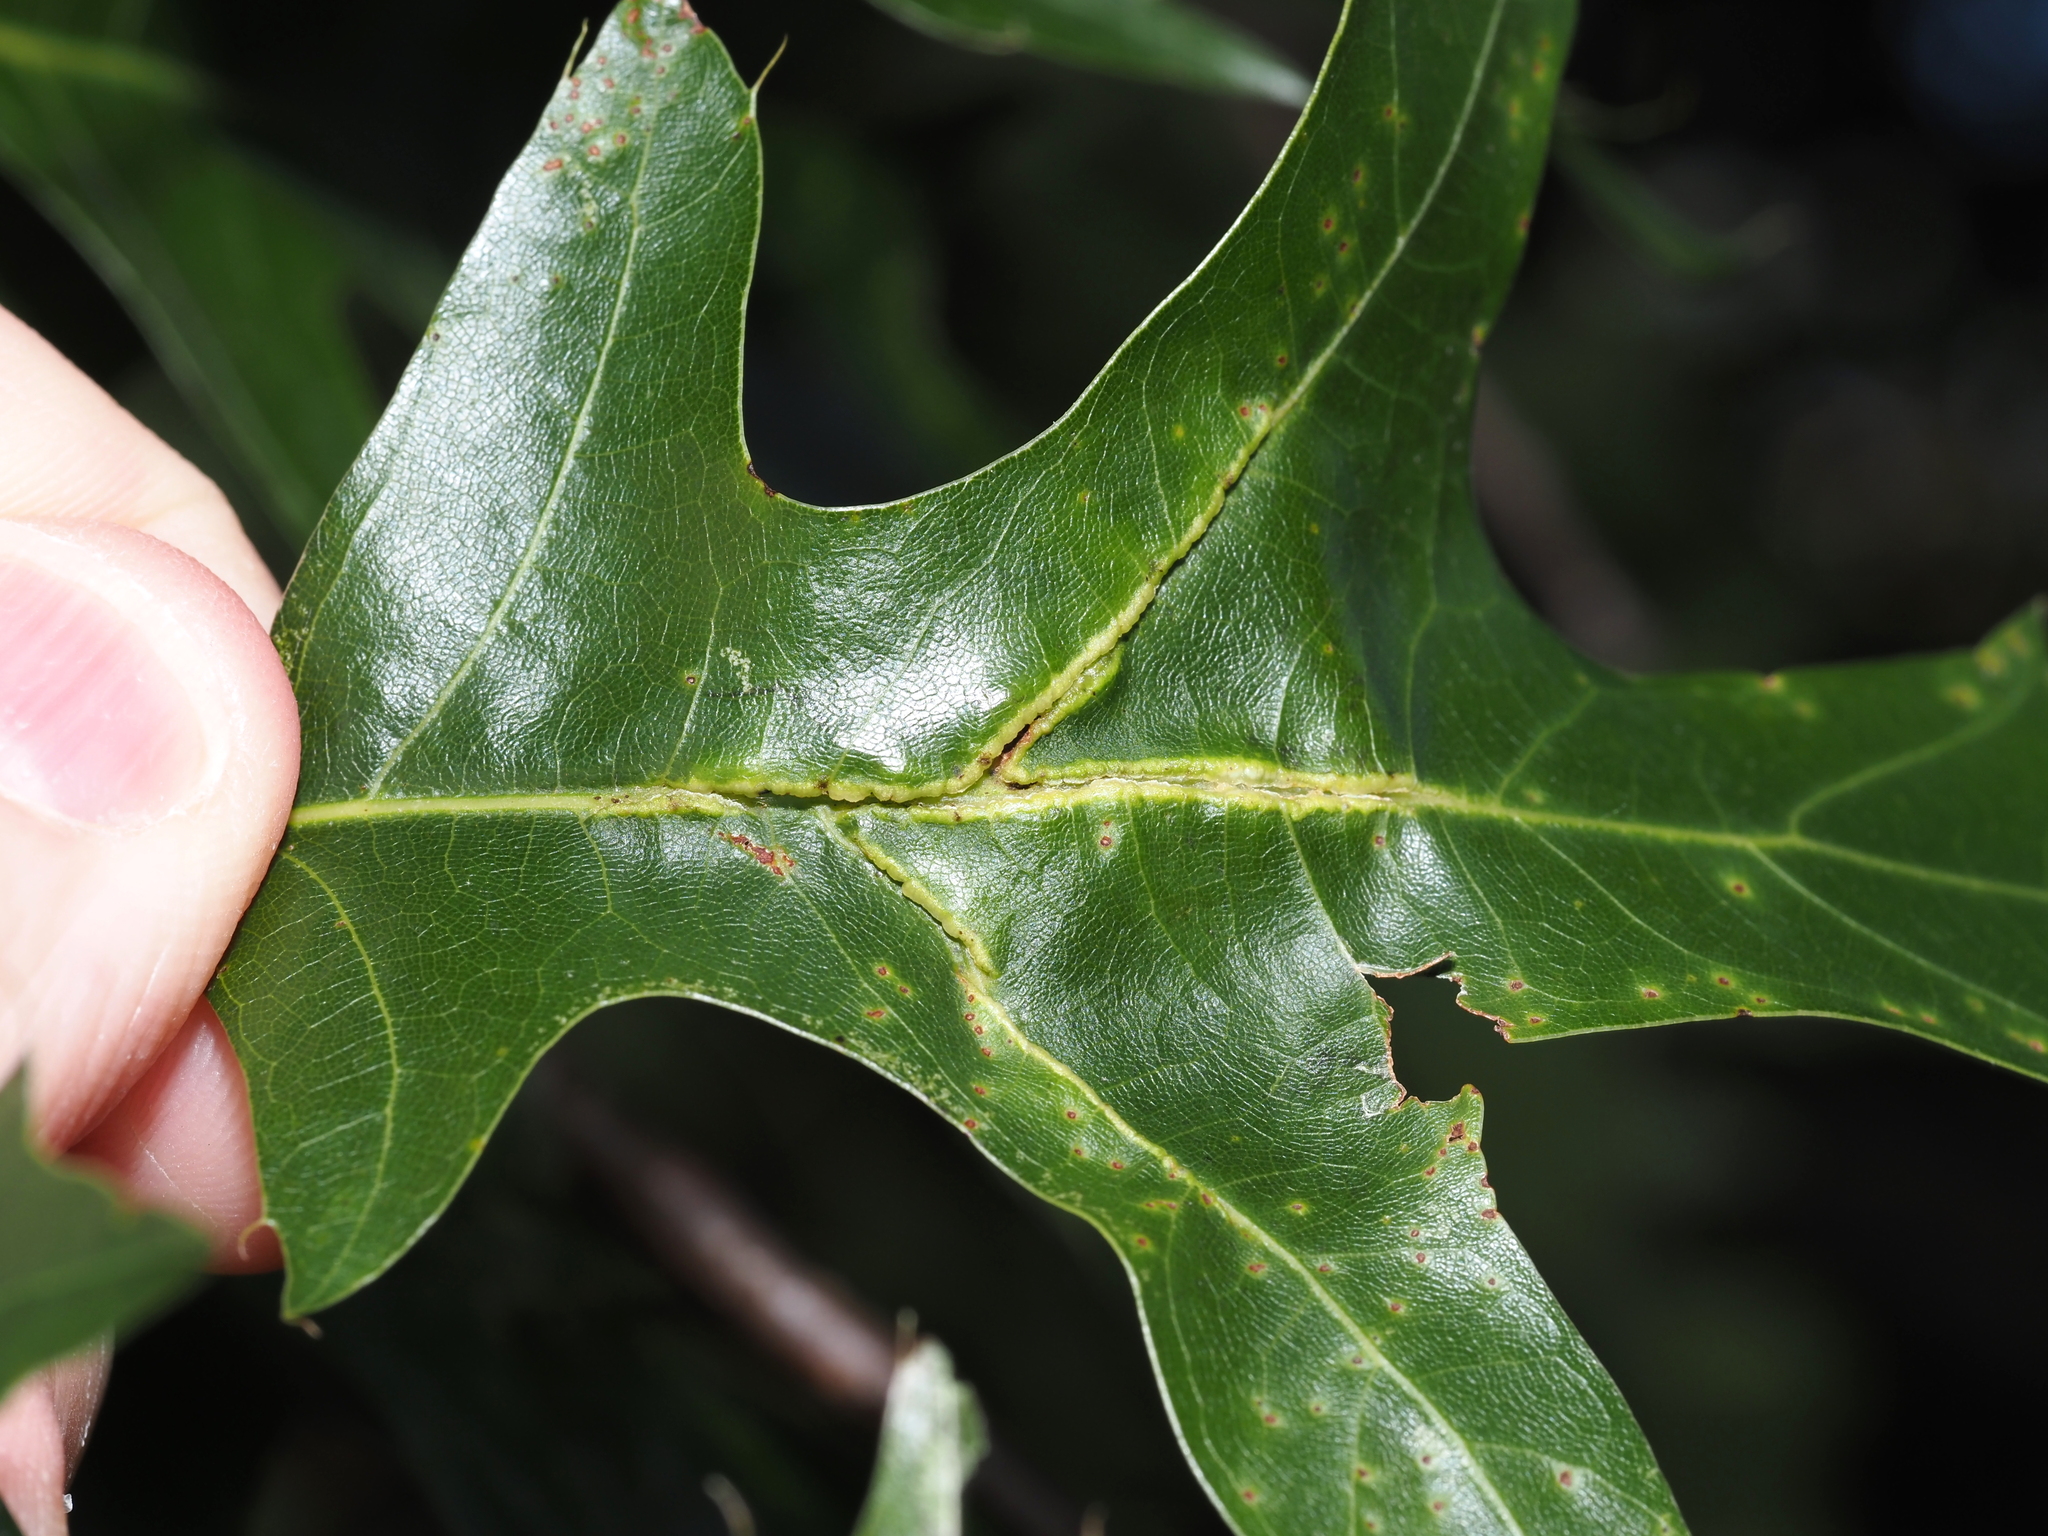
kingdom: Animalia
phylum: Arthropoda
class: Insecta
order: Diptera
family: Cecidomyiidae
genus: Macrodiplosis
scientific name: Macrodiplosis q-orucum
